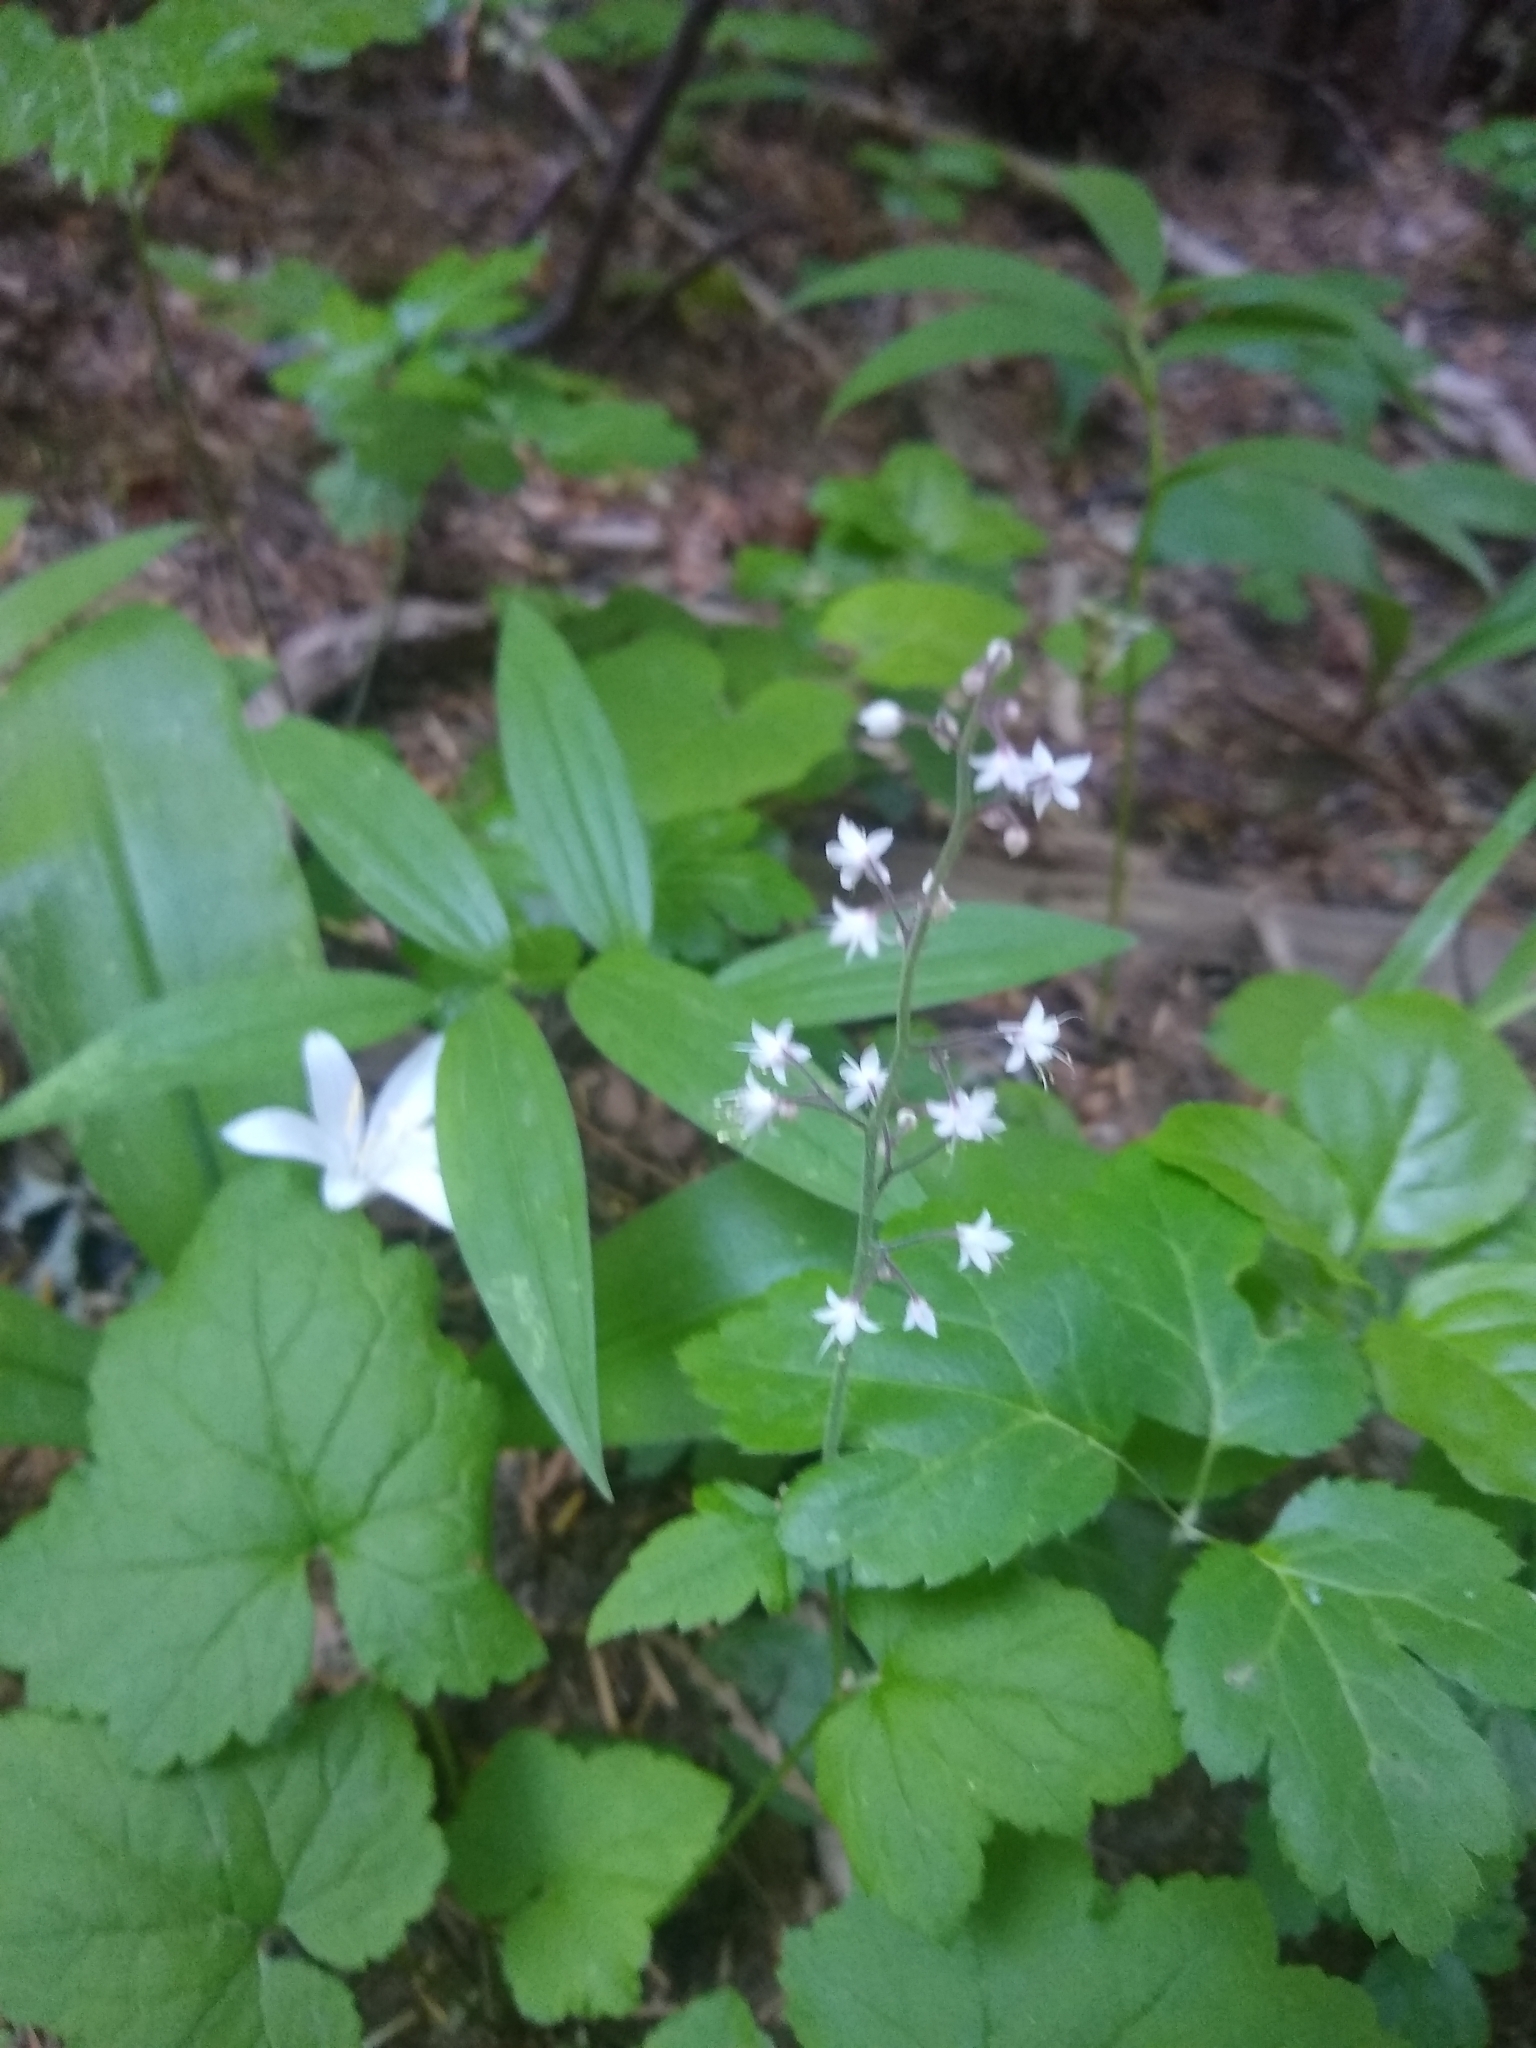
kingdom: Plantae
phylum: Tracheophyta
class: Magnoliopsida
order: Saxifragales
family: Saxifragaceae
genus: Tiarella
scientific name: Tiarella trifoliata
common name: Sugar-scoop
